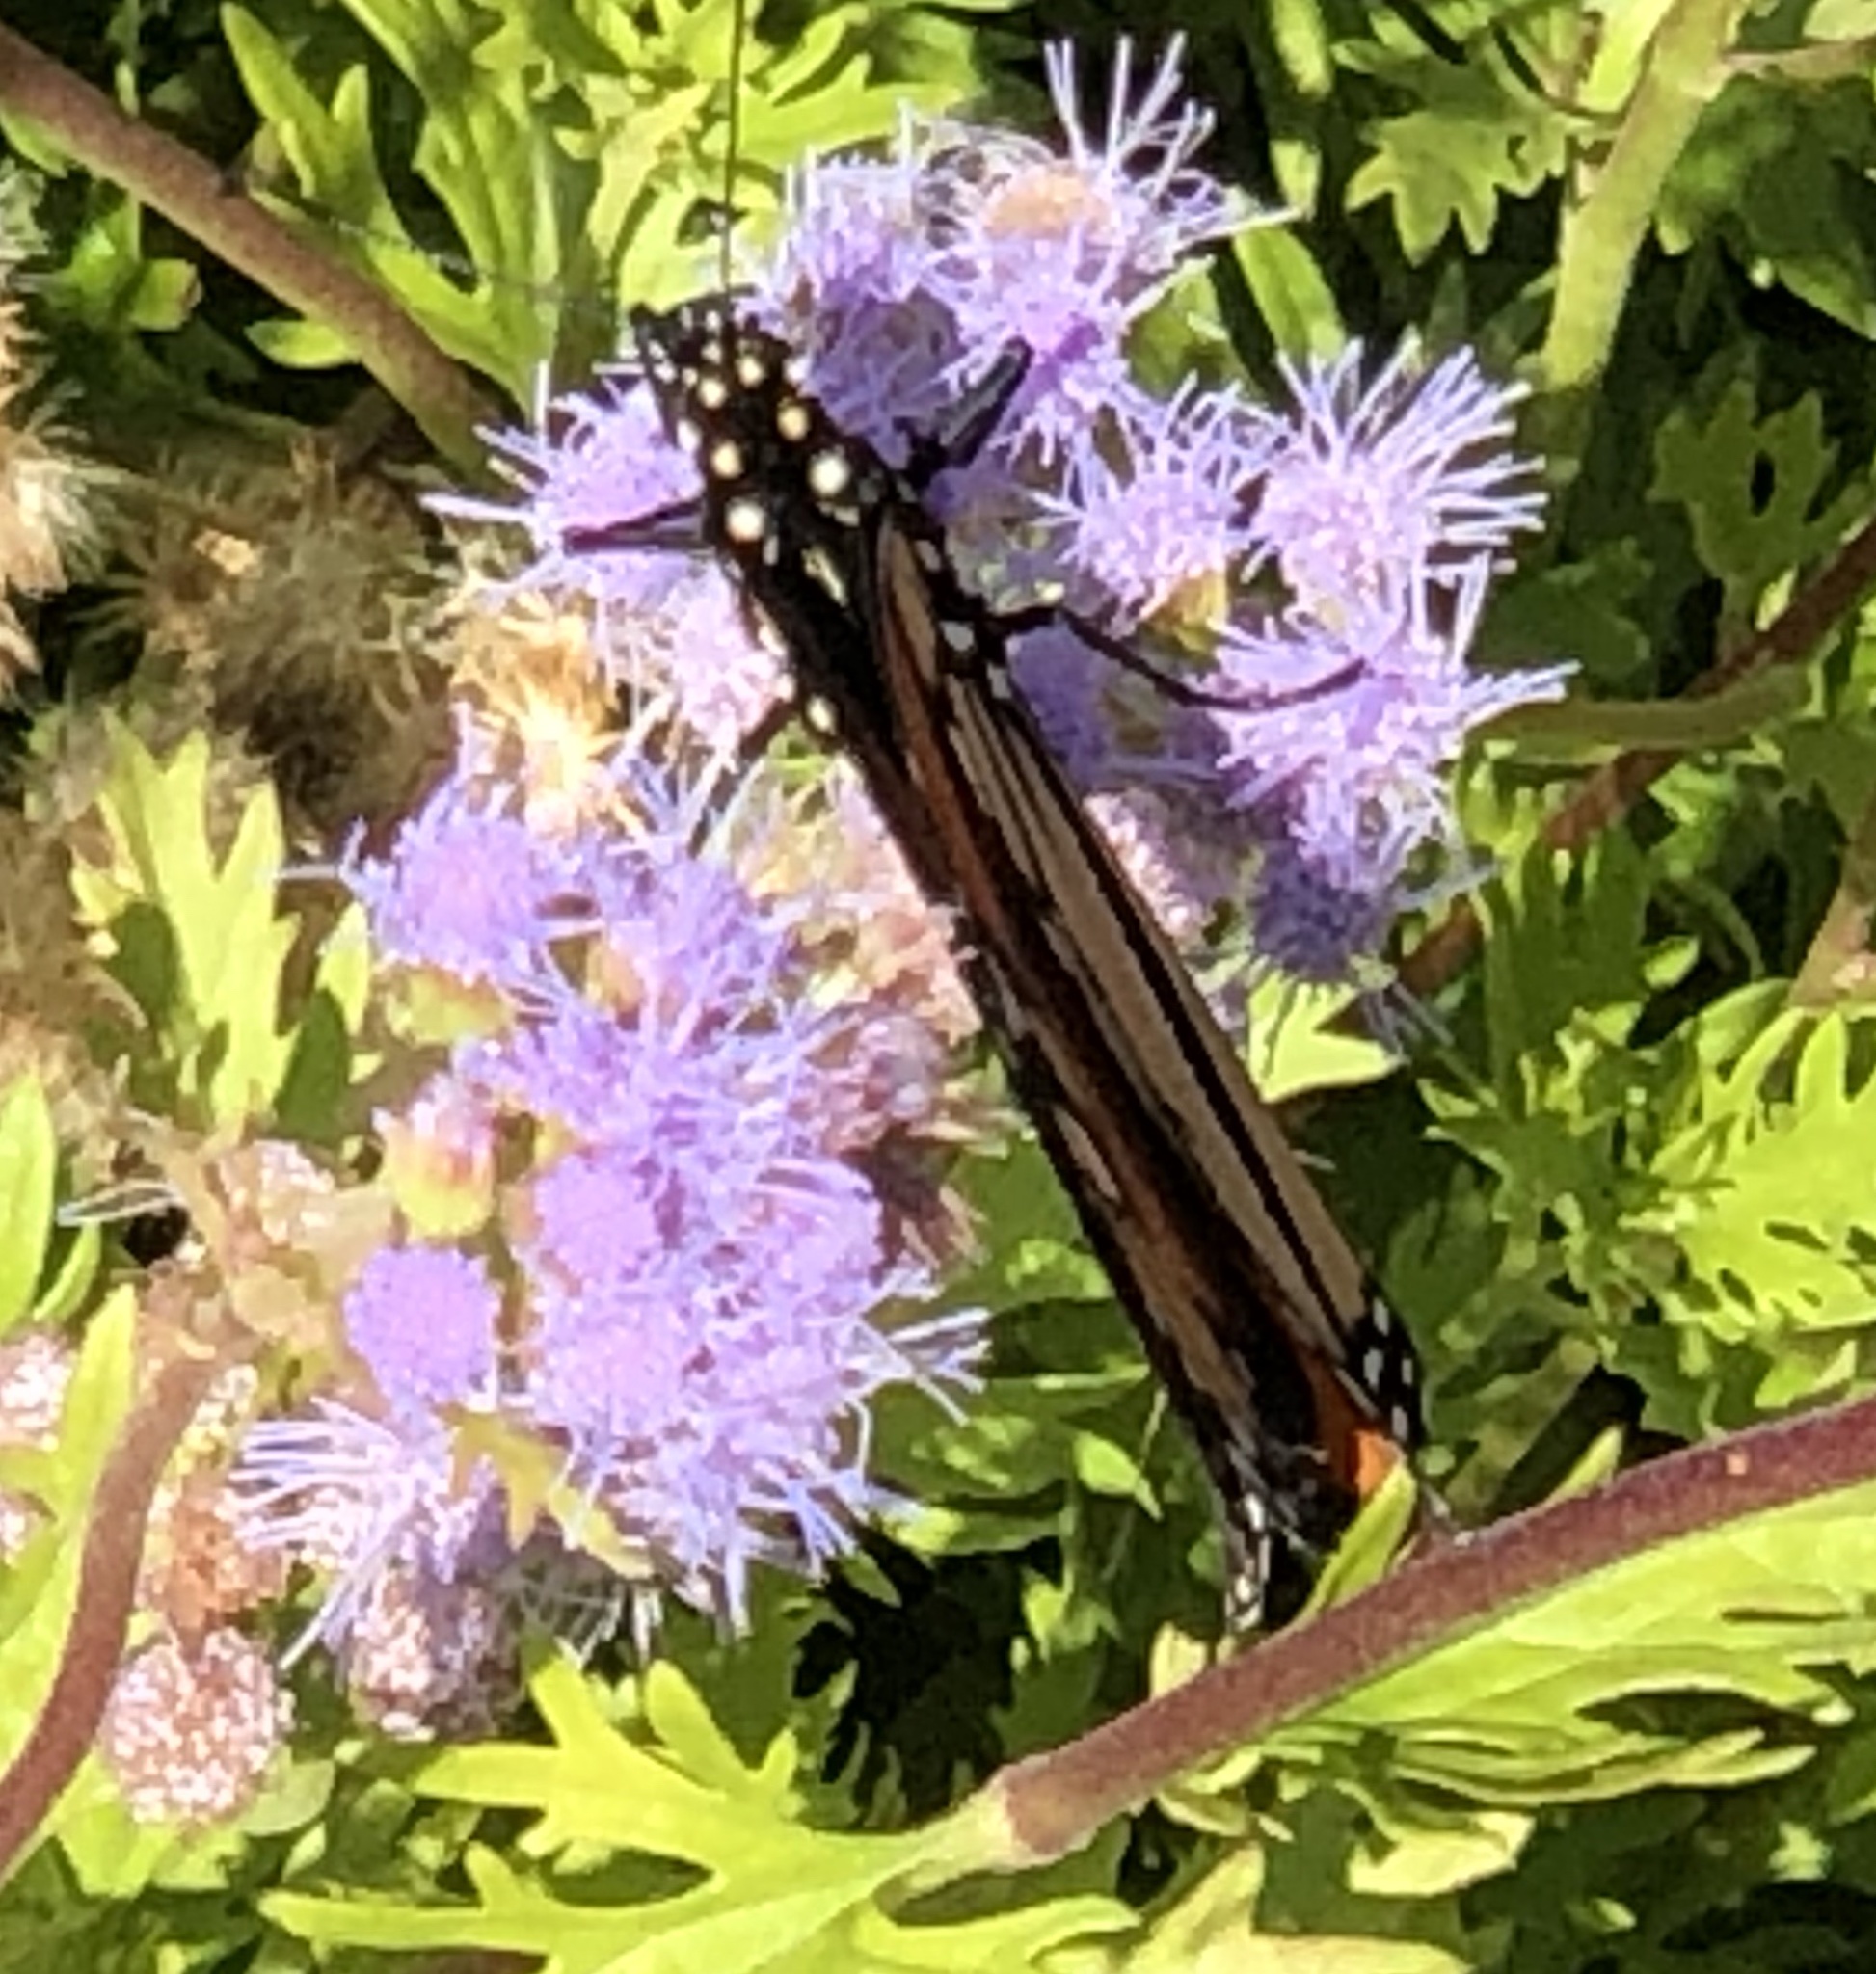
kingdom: Animalia
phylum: Arthropoda
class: Insecta
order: Lepidoptera
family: Nymphalidae
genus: Danaus
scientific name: Danaus plexippus
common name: Monarch
